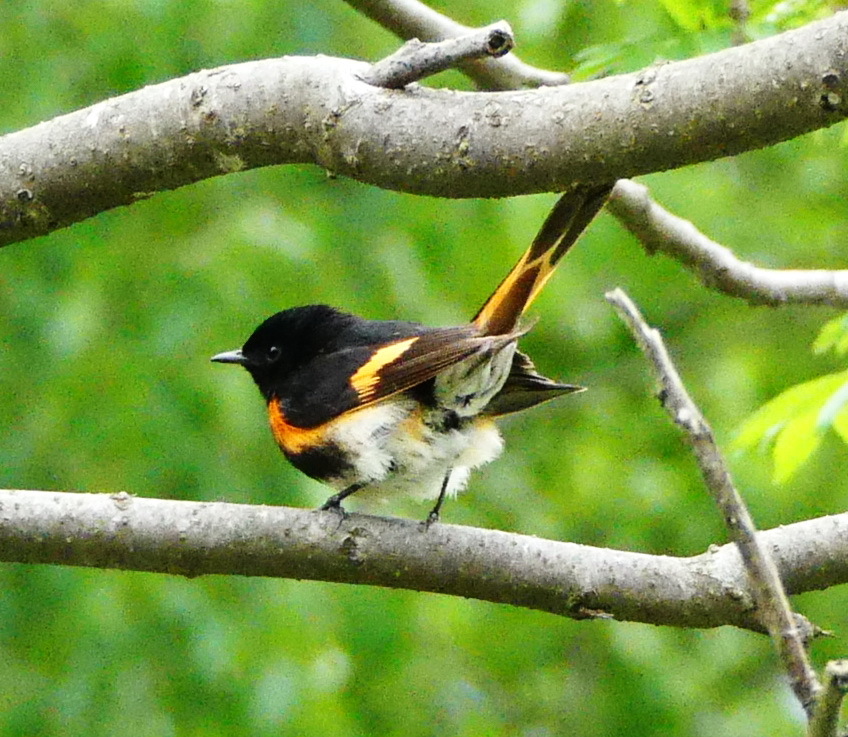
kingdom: Animalia
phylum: Chordata
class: Aves
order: Passeriformes
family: Parulidae
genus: Setophaga
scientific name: Setophaga ruticilla
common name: American redstart
